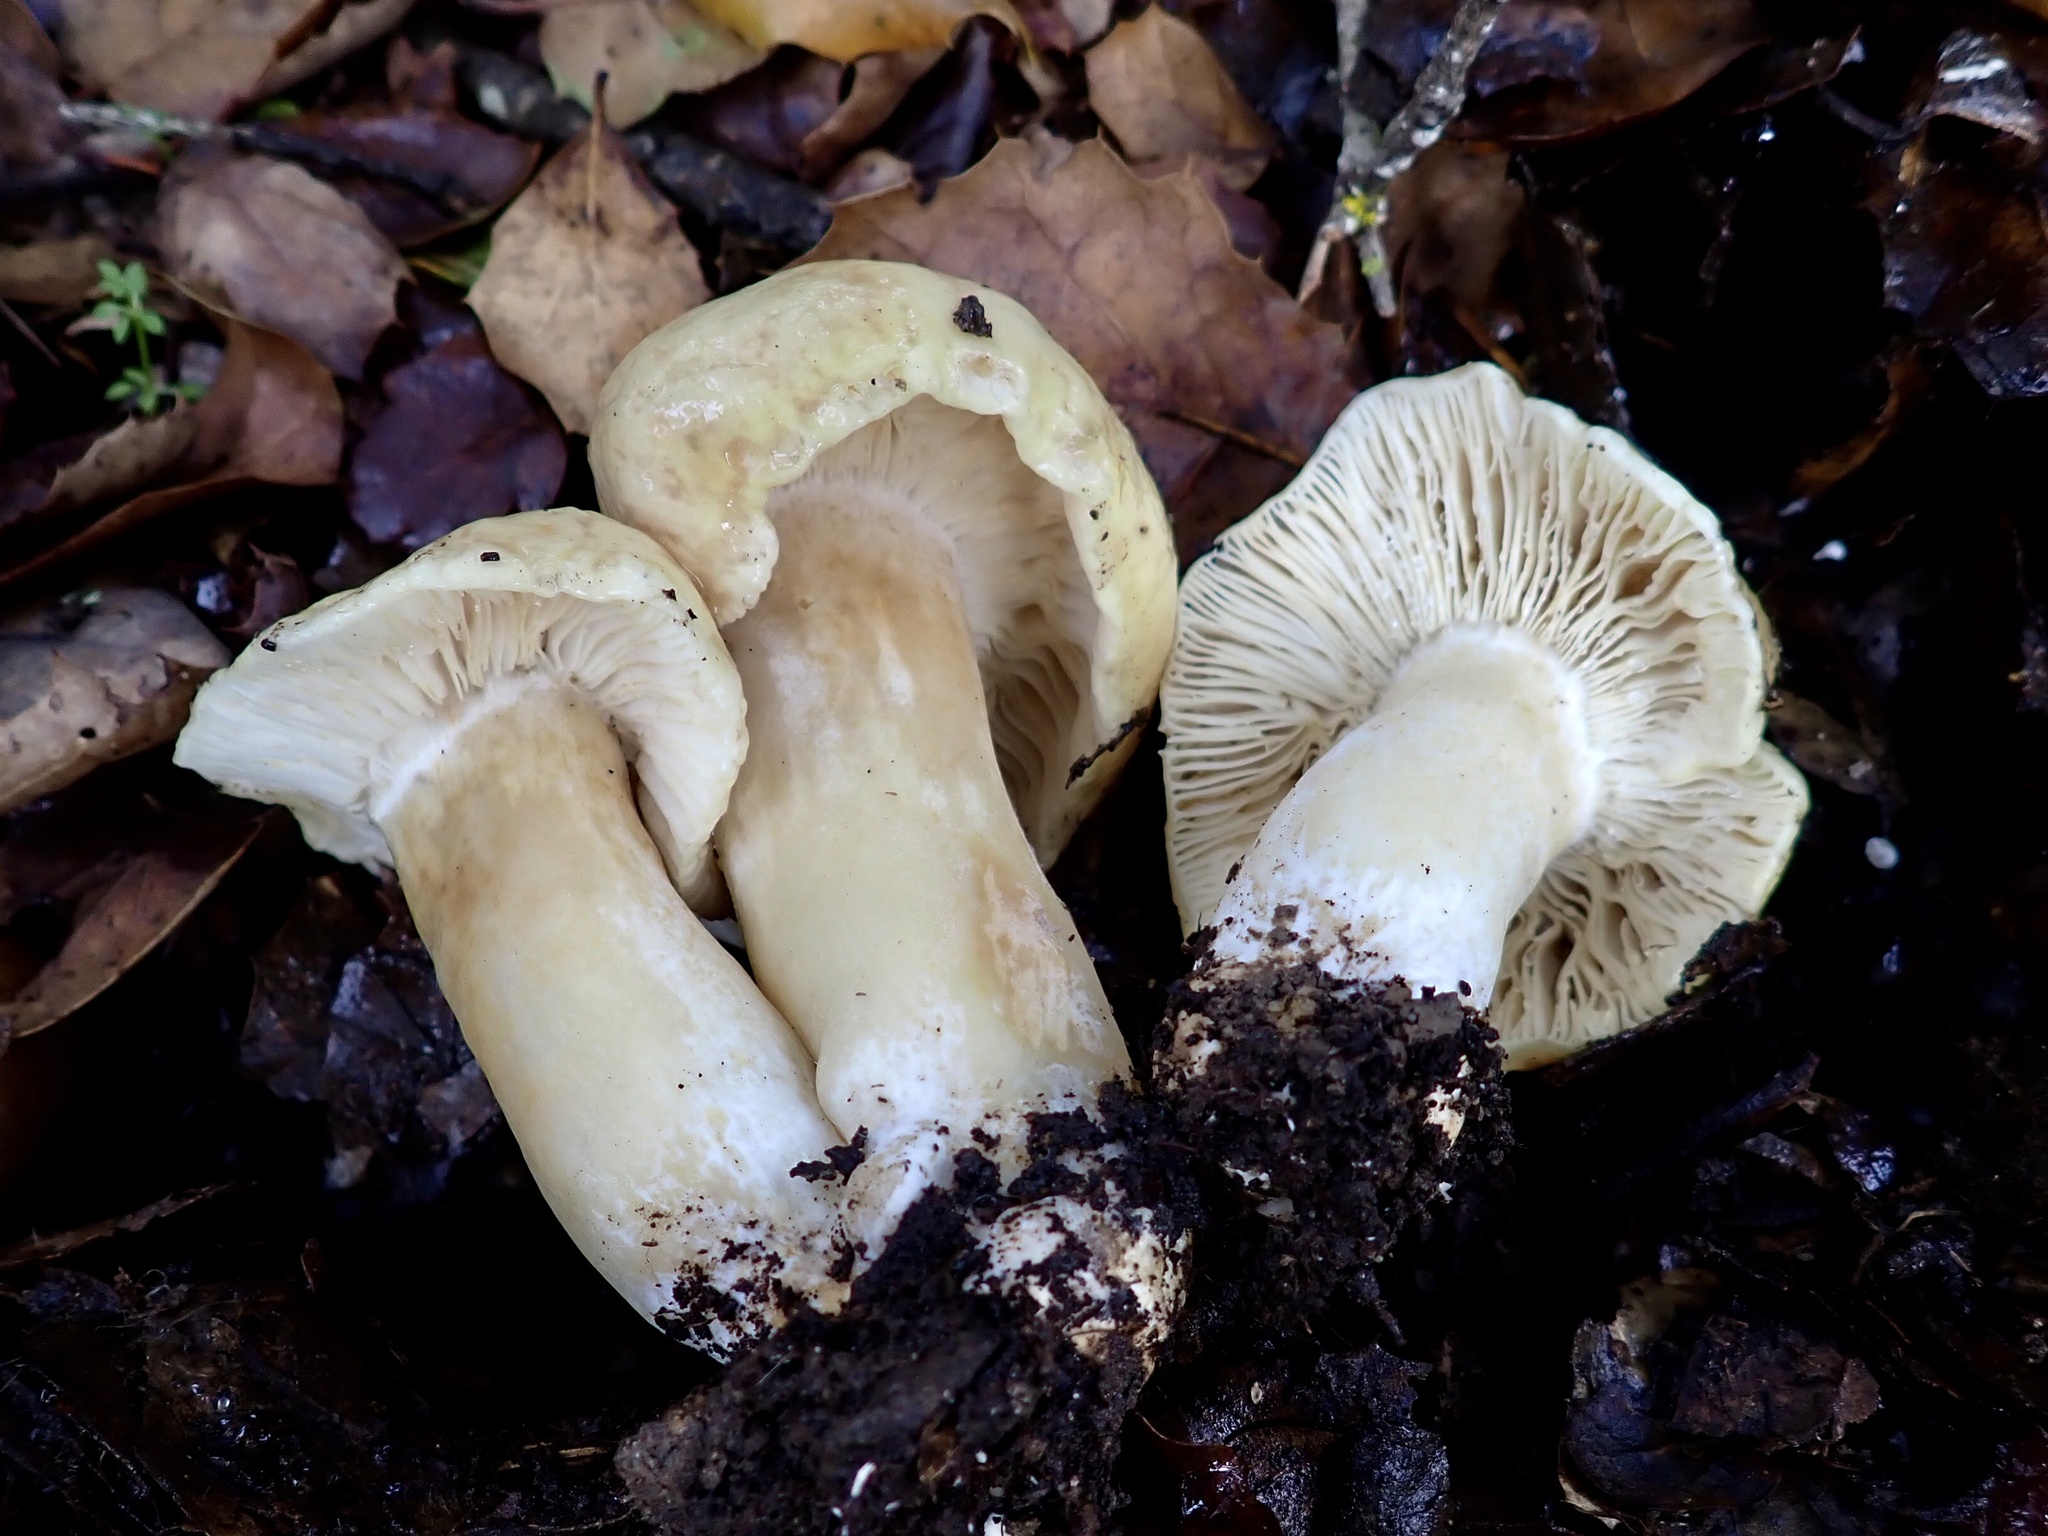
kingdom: Fungi
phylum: Basidiomycota
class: Agaricomycetes
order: Agaricales
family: Tricholomataceae
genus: Tricholoma
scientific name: Tricholoma saponaceum
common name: Soapy trich
